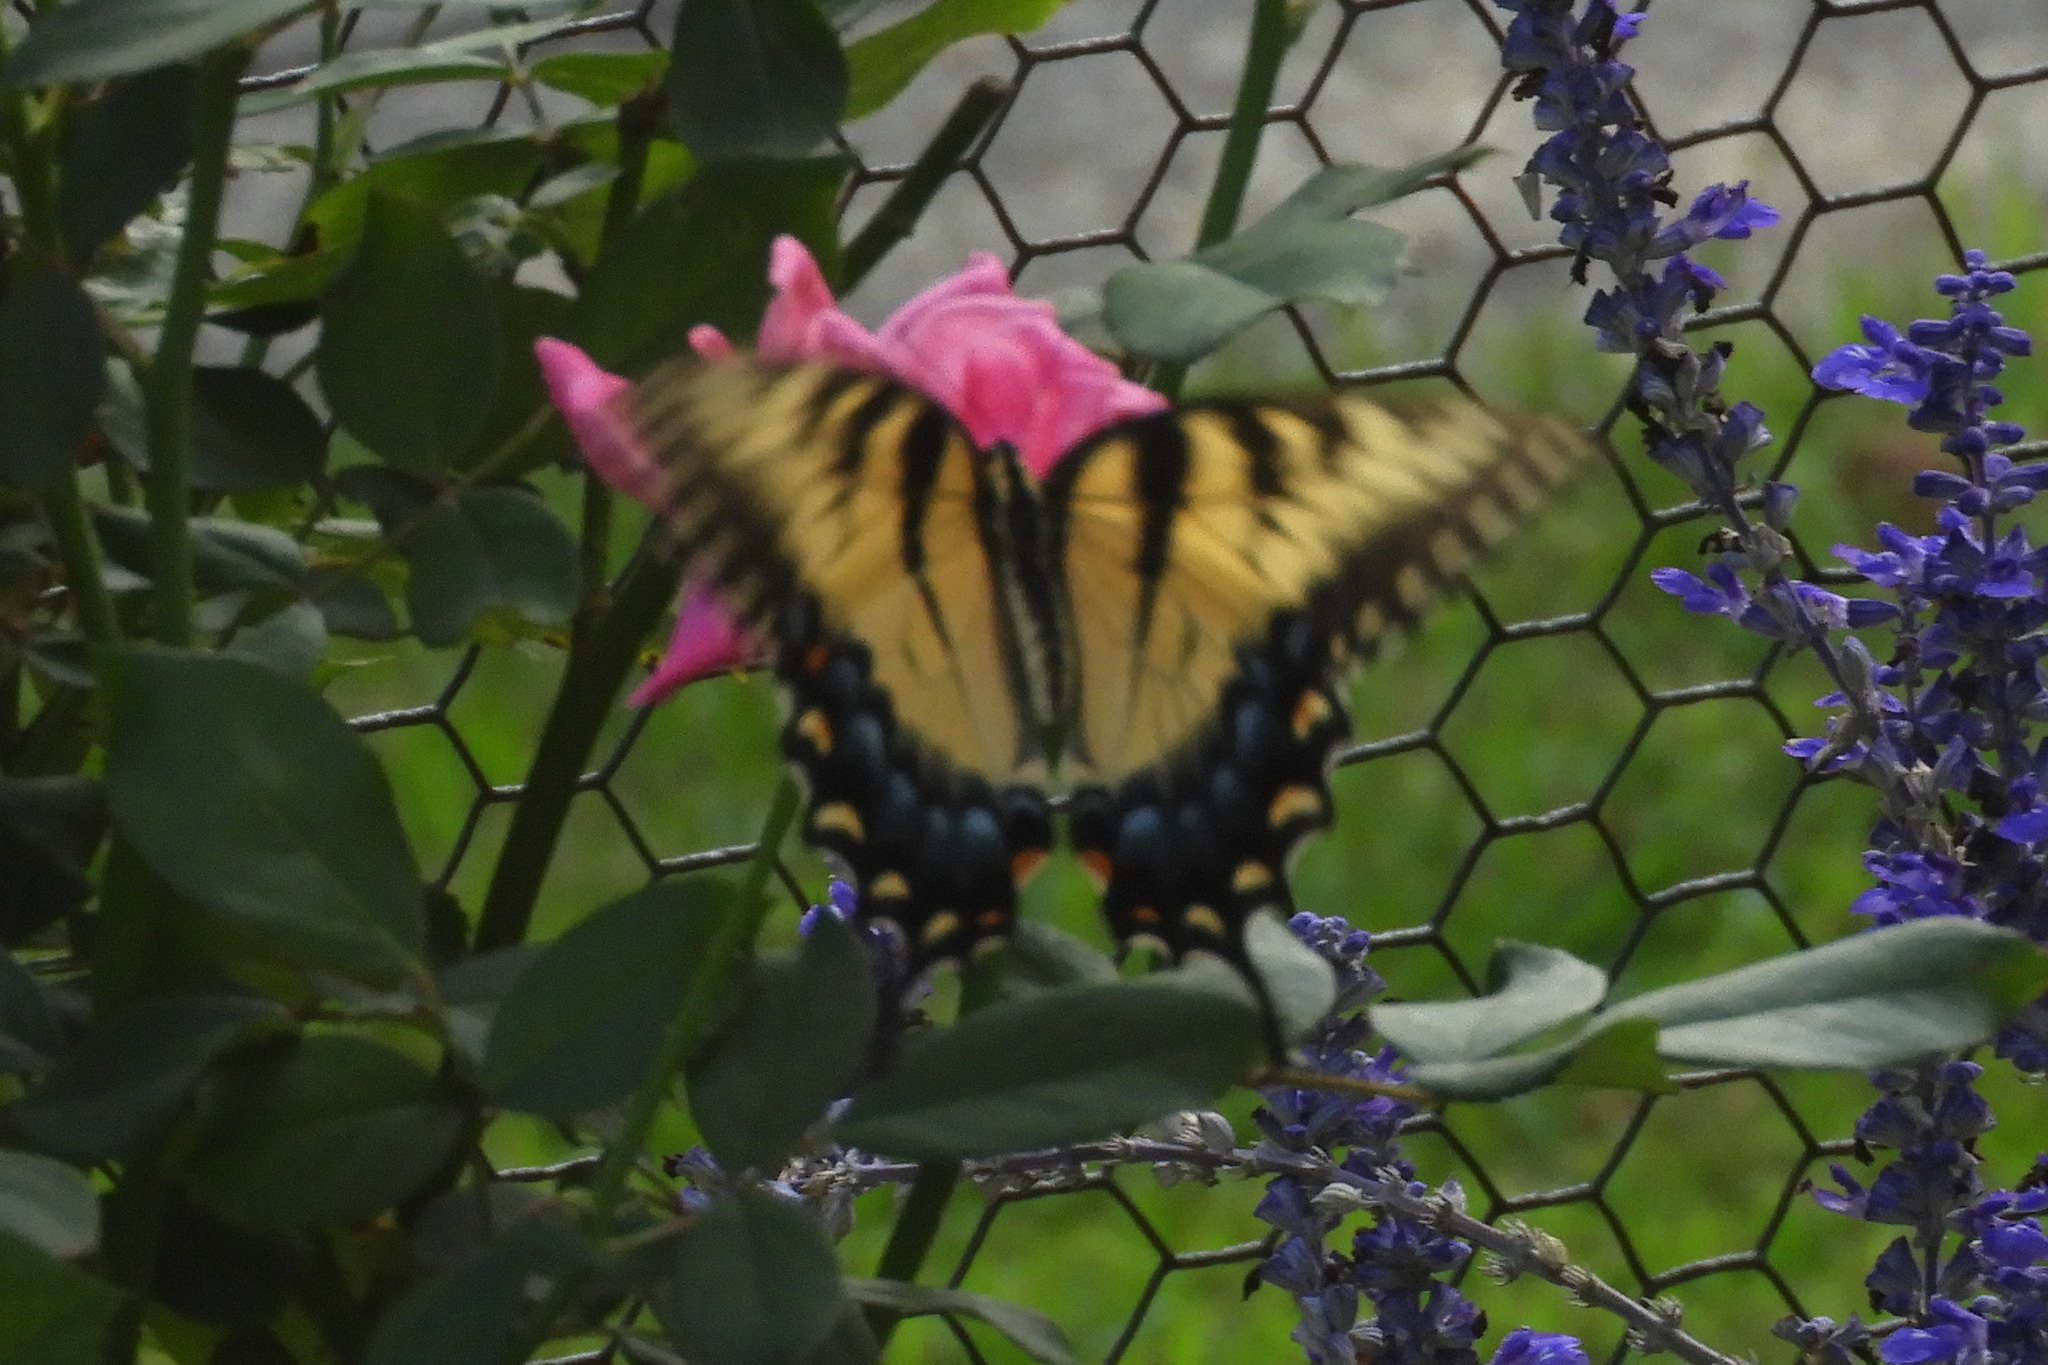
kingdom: Animalia
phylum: Arthropoda
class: Insecta
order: Lepidoptera
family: Papilionidae
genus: Papilio
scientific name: Papilio glaucus
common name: Tiger swallowtail
